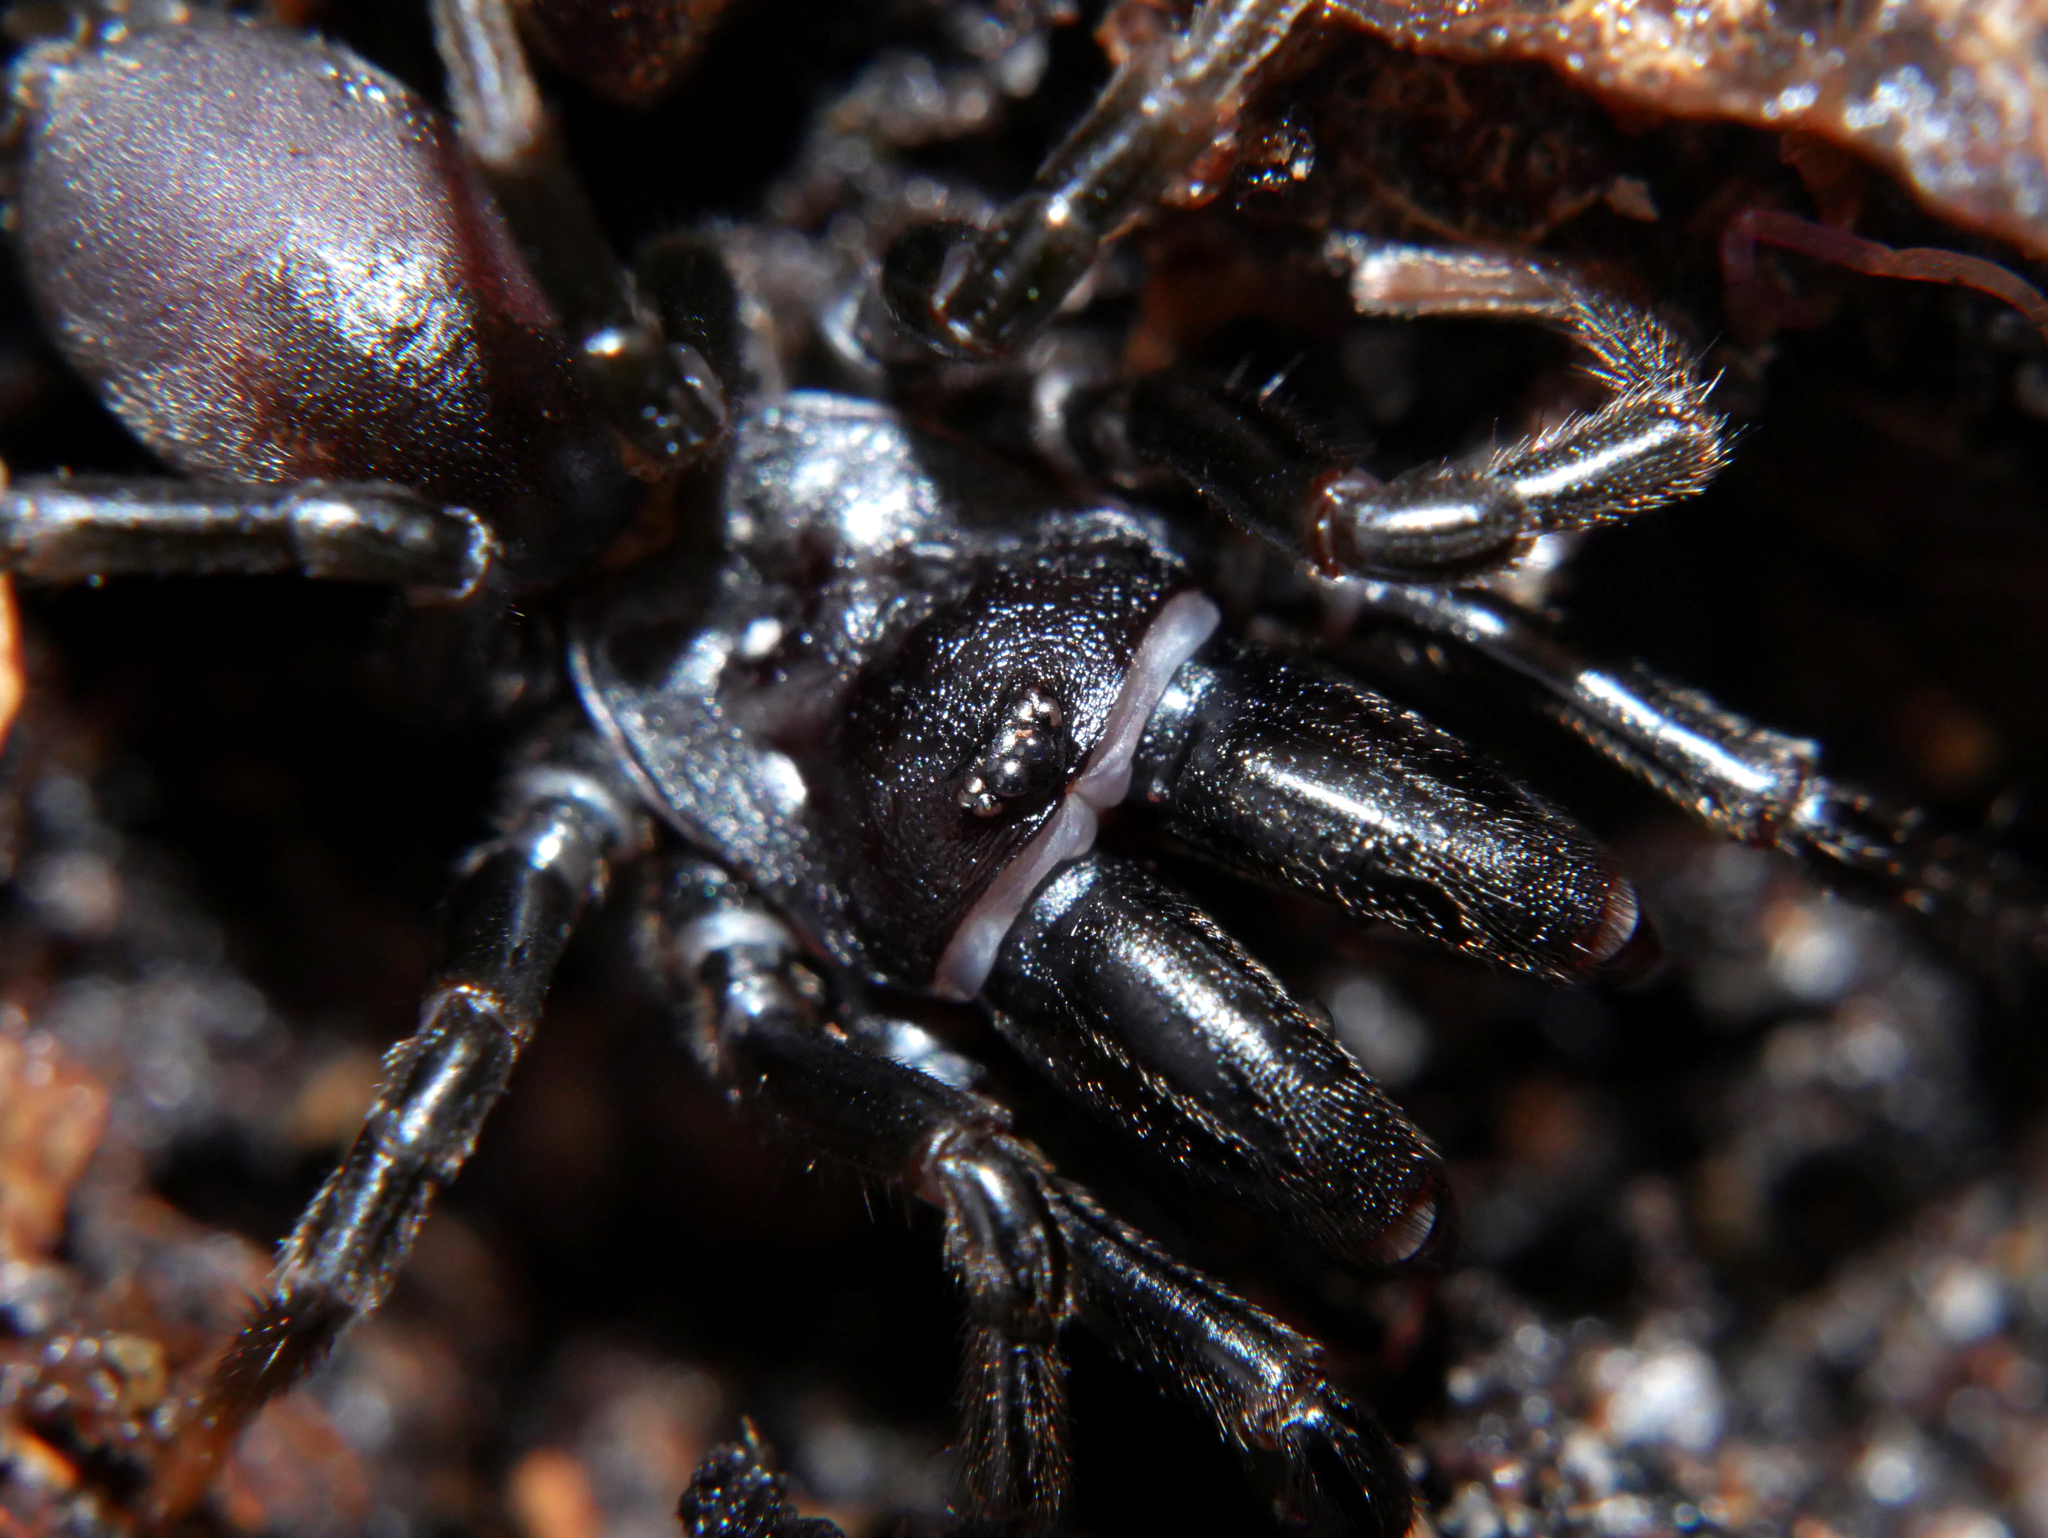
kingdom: Animalia
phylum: Arthropoda
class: Arachnida
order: Araneae
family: Atypidae
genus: Atypus
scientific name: Atypus affinis
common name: Purse web spider
